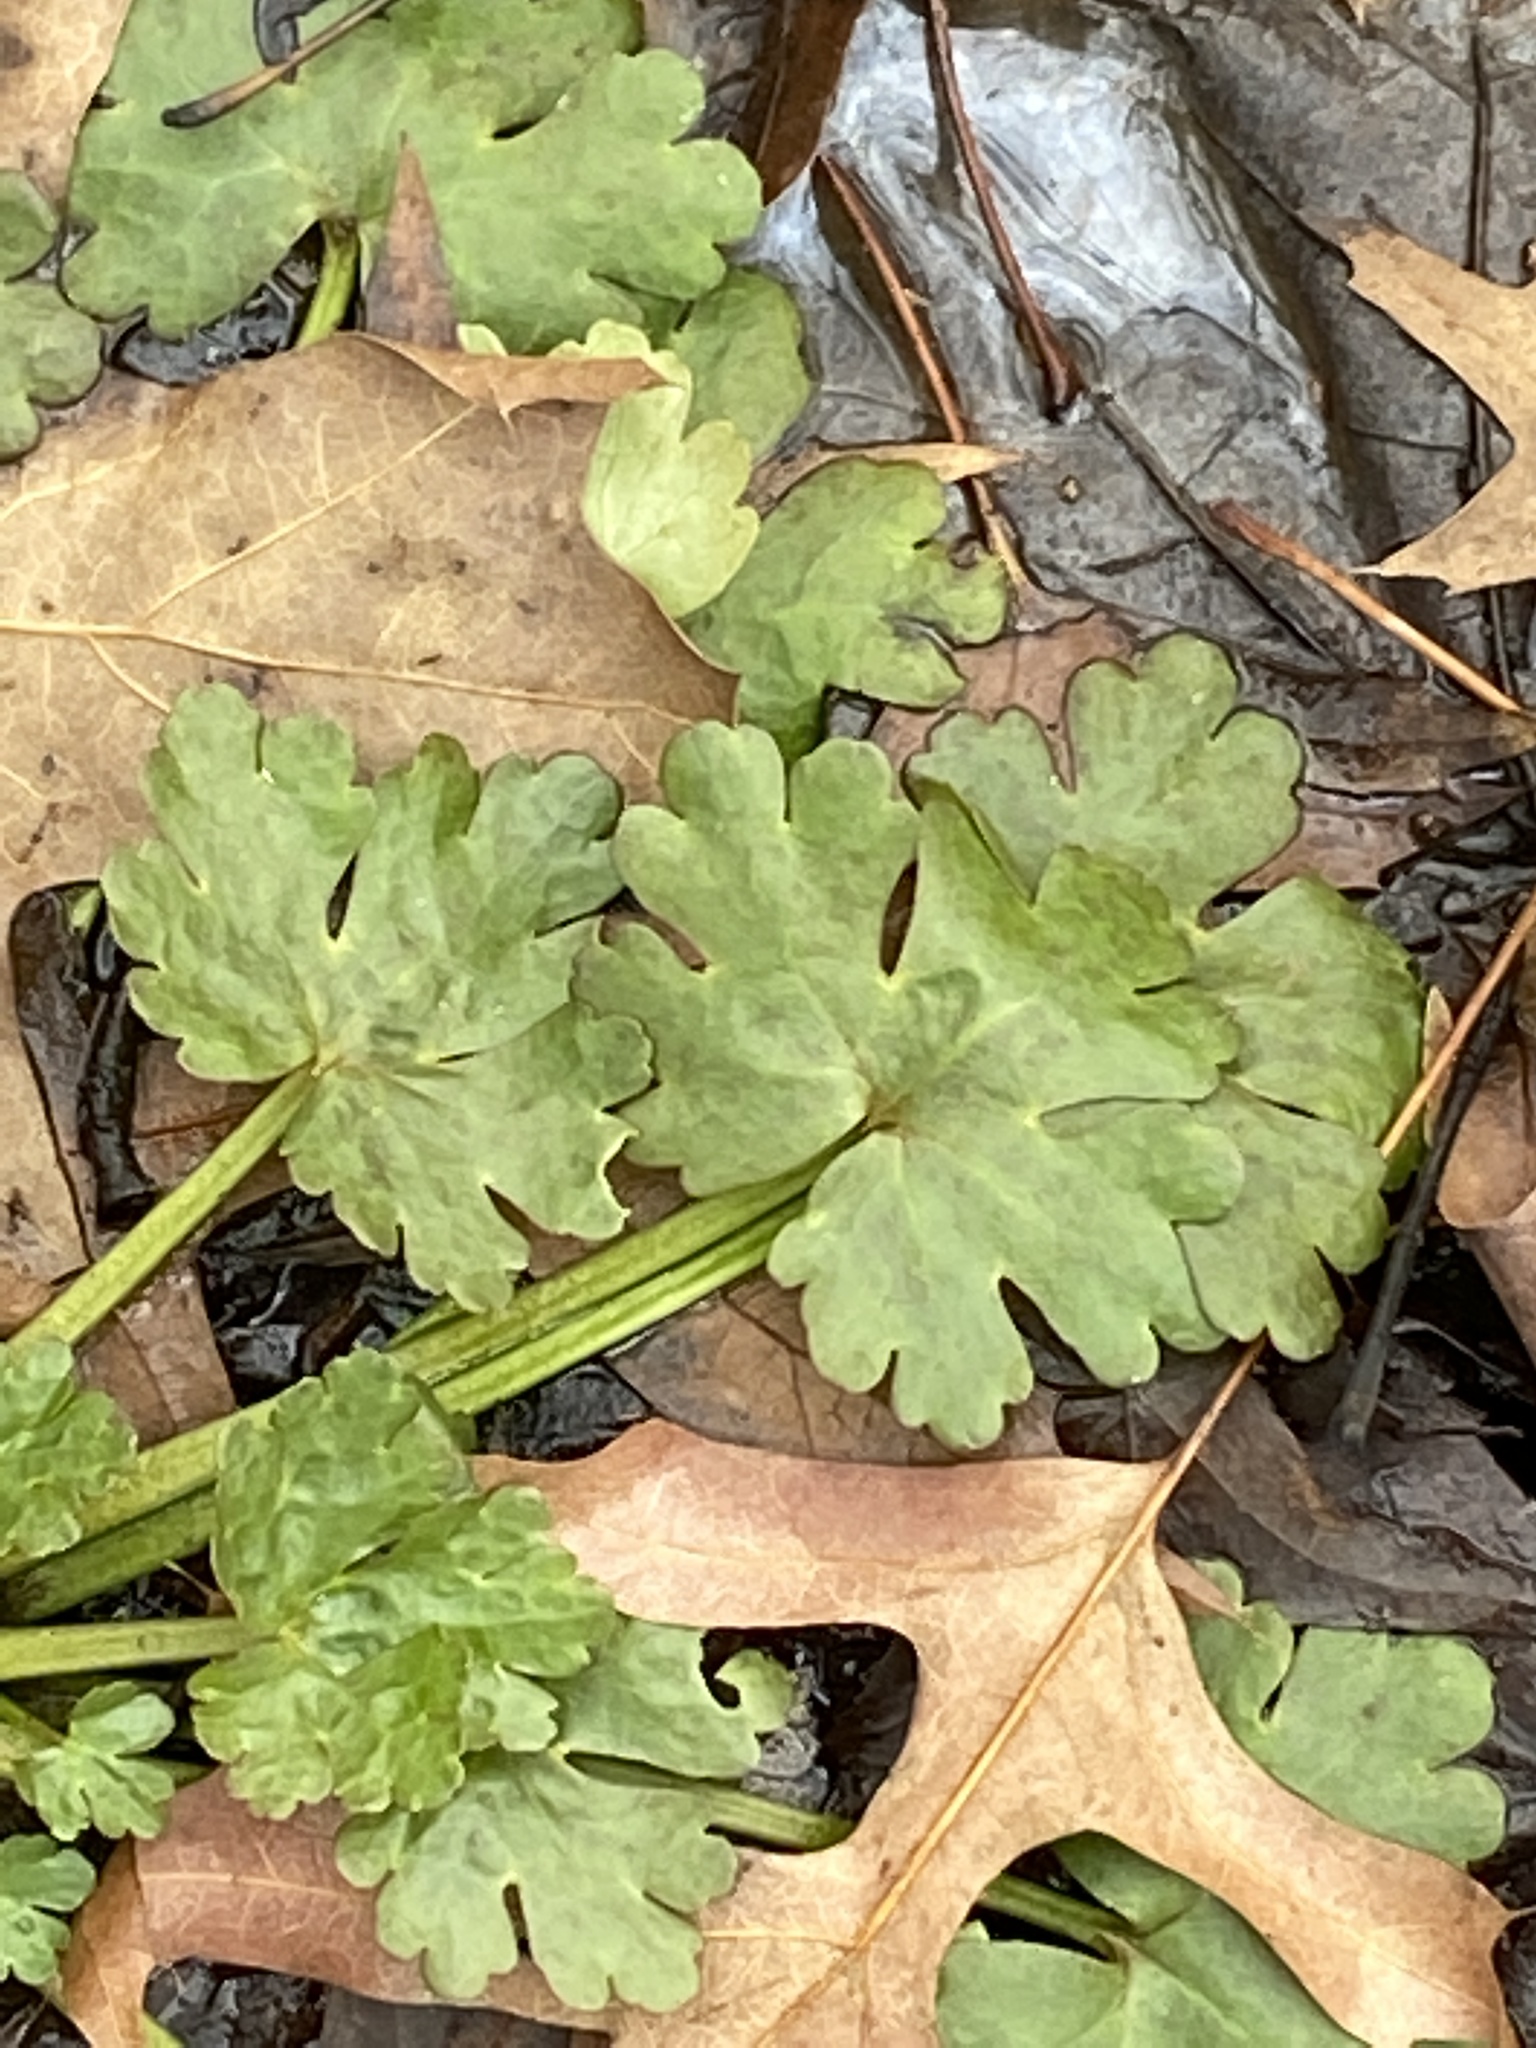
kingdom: Plantae
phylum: Tracheophyta
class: Magnoliopsida
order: Ranunculales
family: Ranunculaceae
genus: Ranunculus
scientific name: Ranunculus sceleratus
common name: Celery-leaved buttercup
